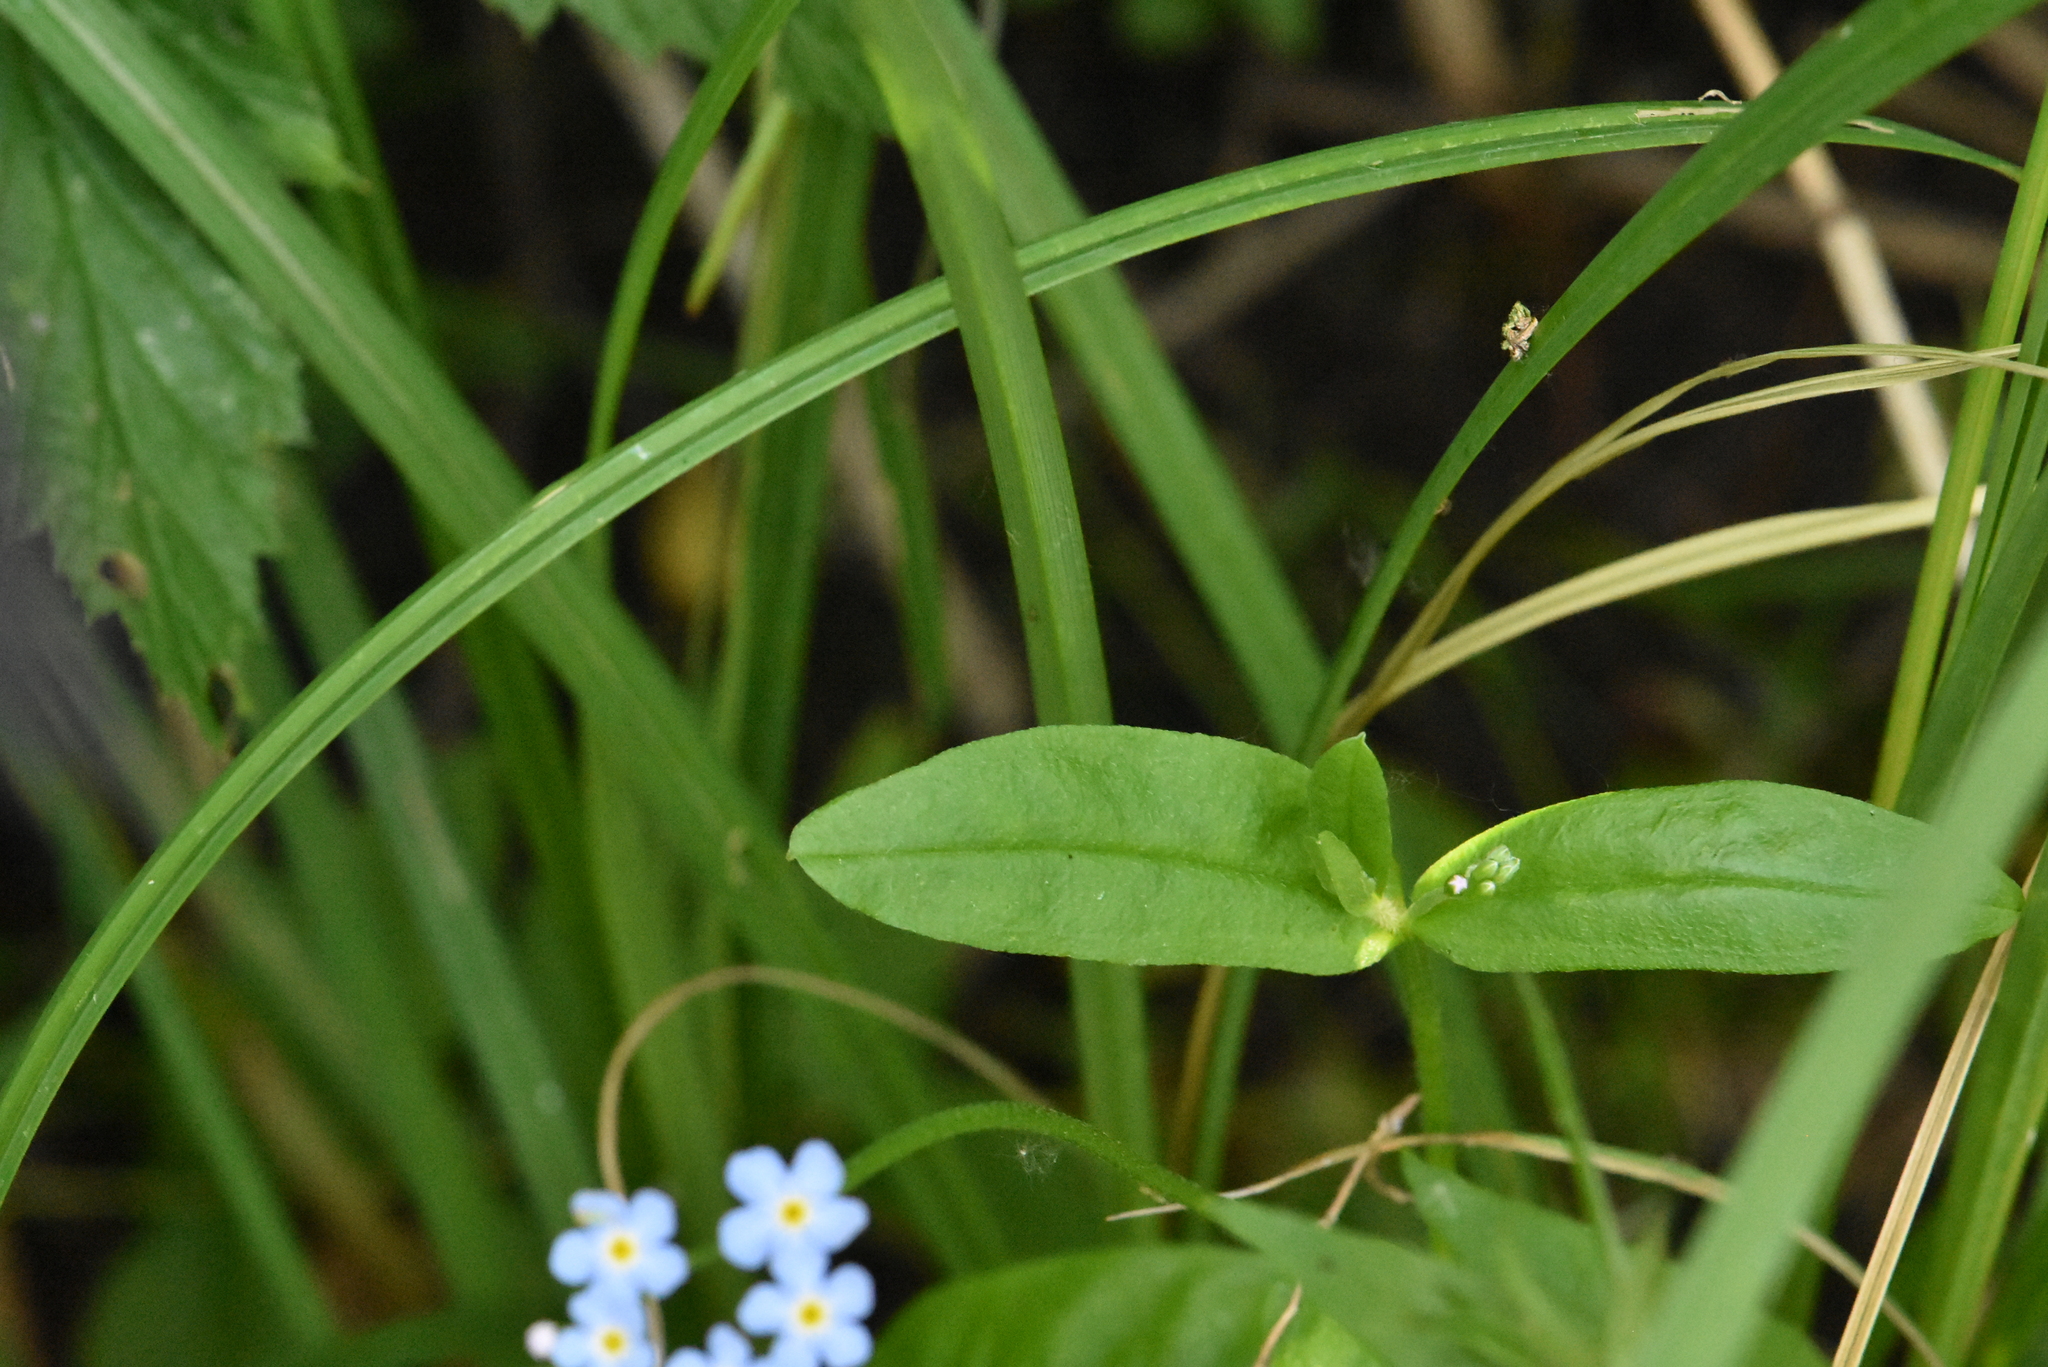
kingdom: Plantae
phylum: Tracheophyta
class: Magnoliopsida
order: Boraginales
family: Boraginaceae
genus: Myosotis
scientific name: Myosotis scorpioides
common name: Water forget-me-not
